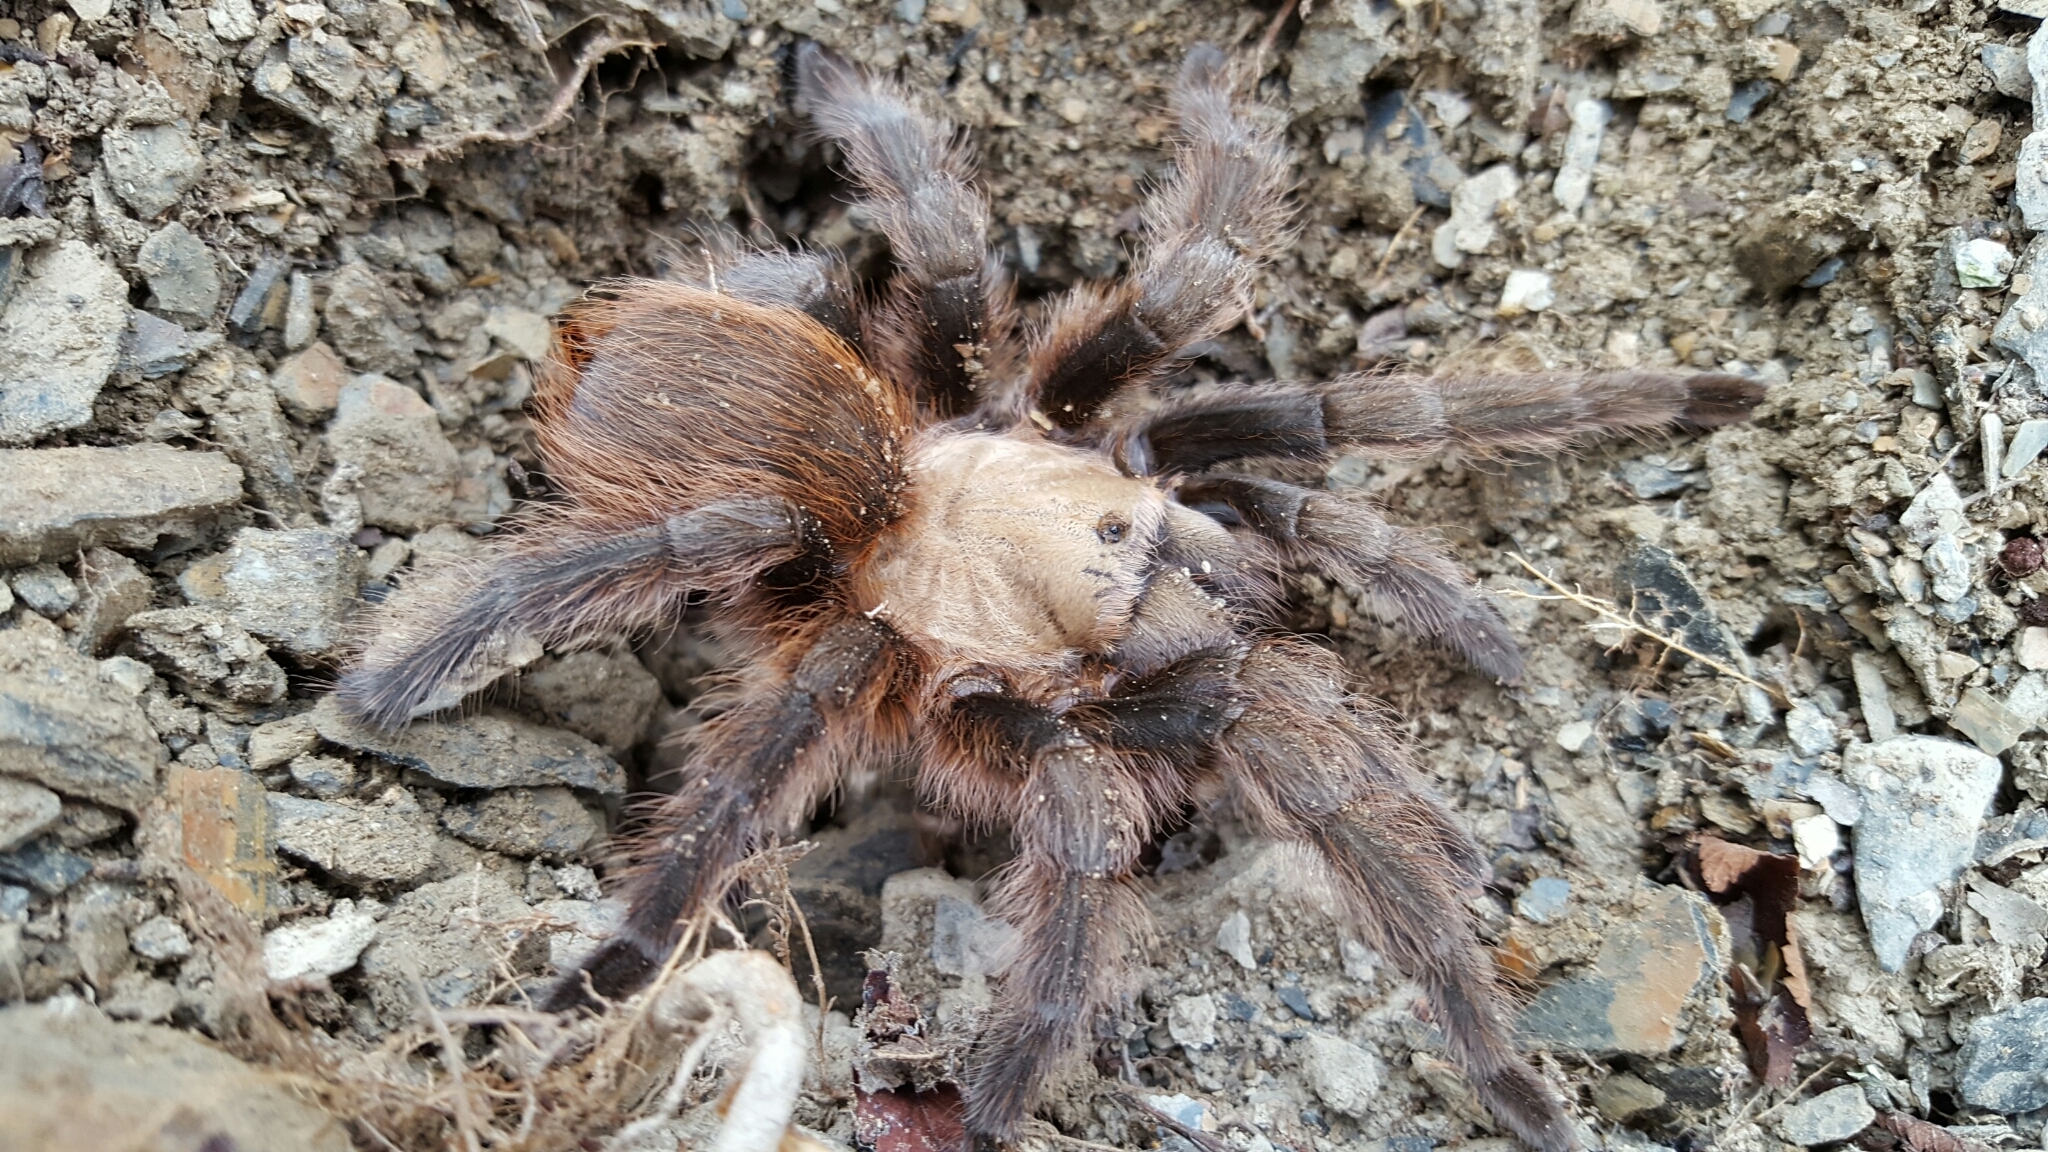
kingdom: Animalia
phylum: Arthropoda
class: Arachnida
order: Araneae
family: Theraphosidae
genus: Aphonopelma
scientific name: Aphonopelma hentzi
